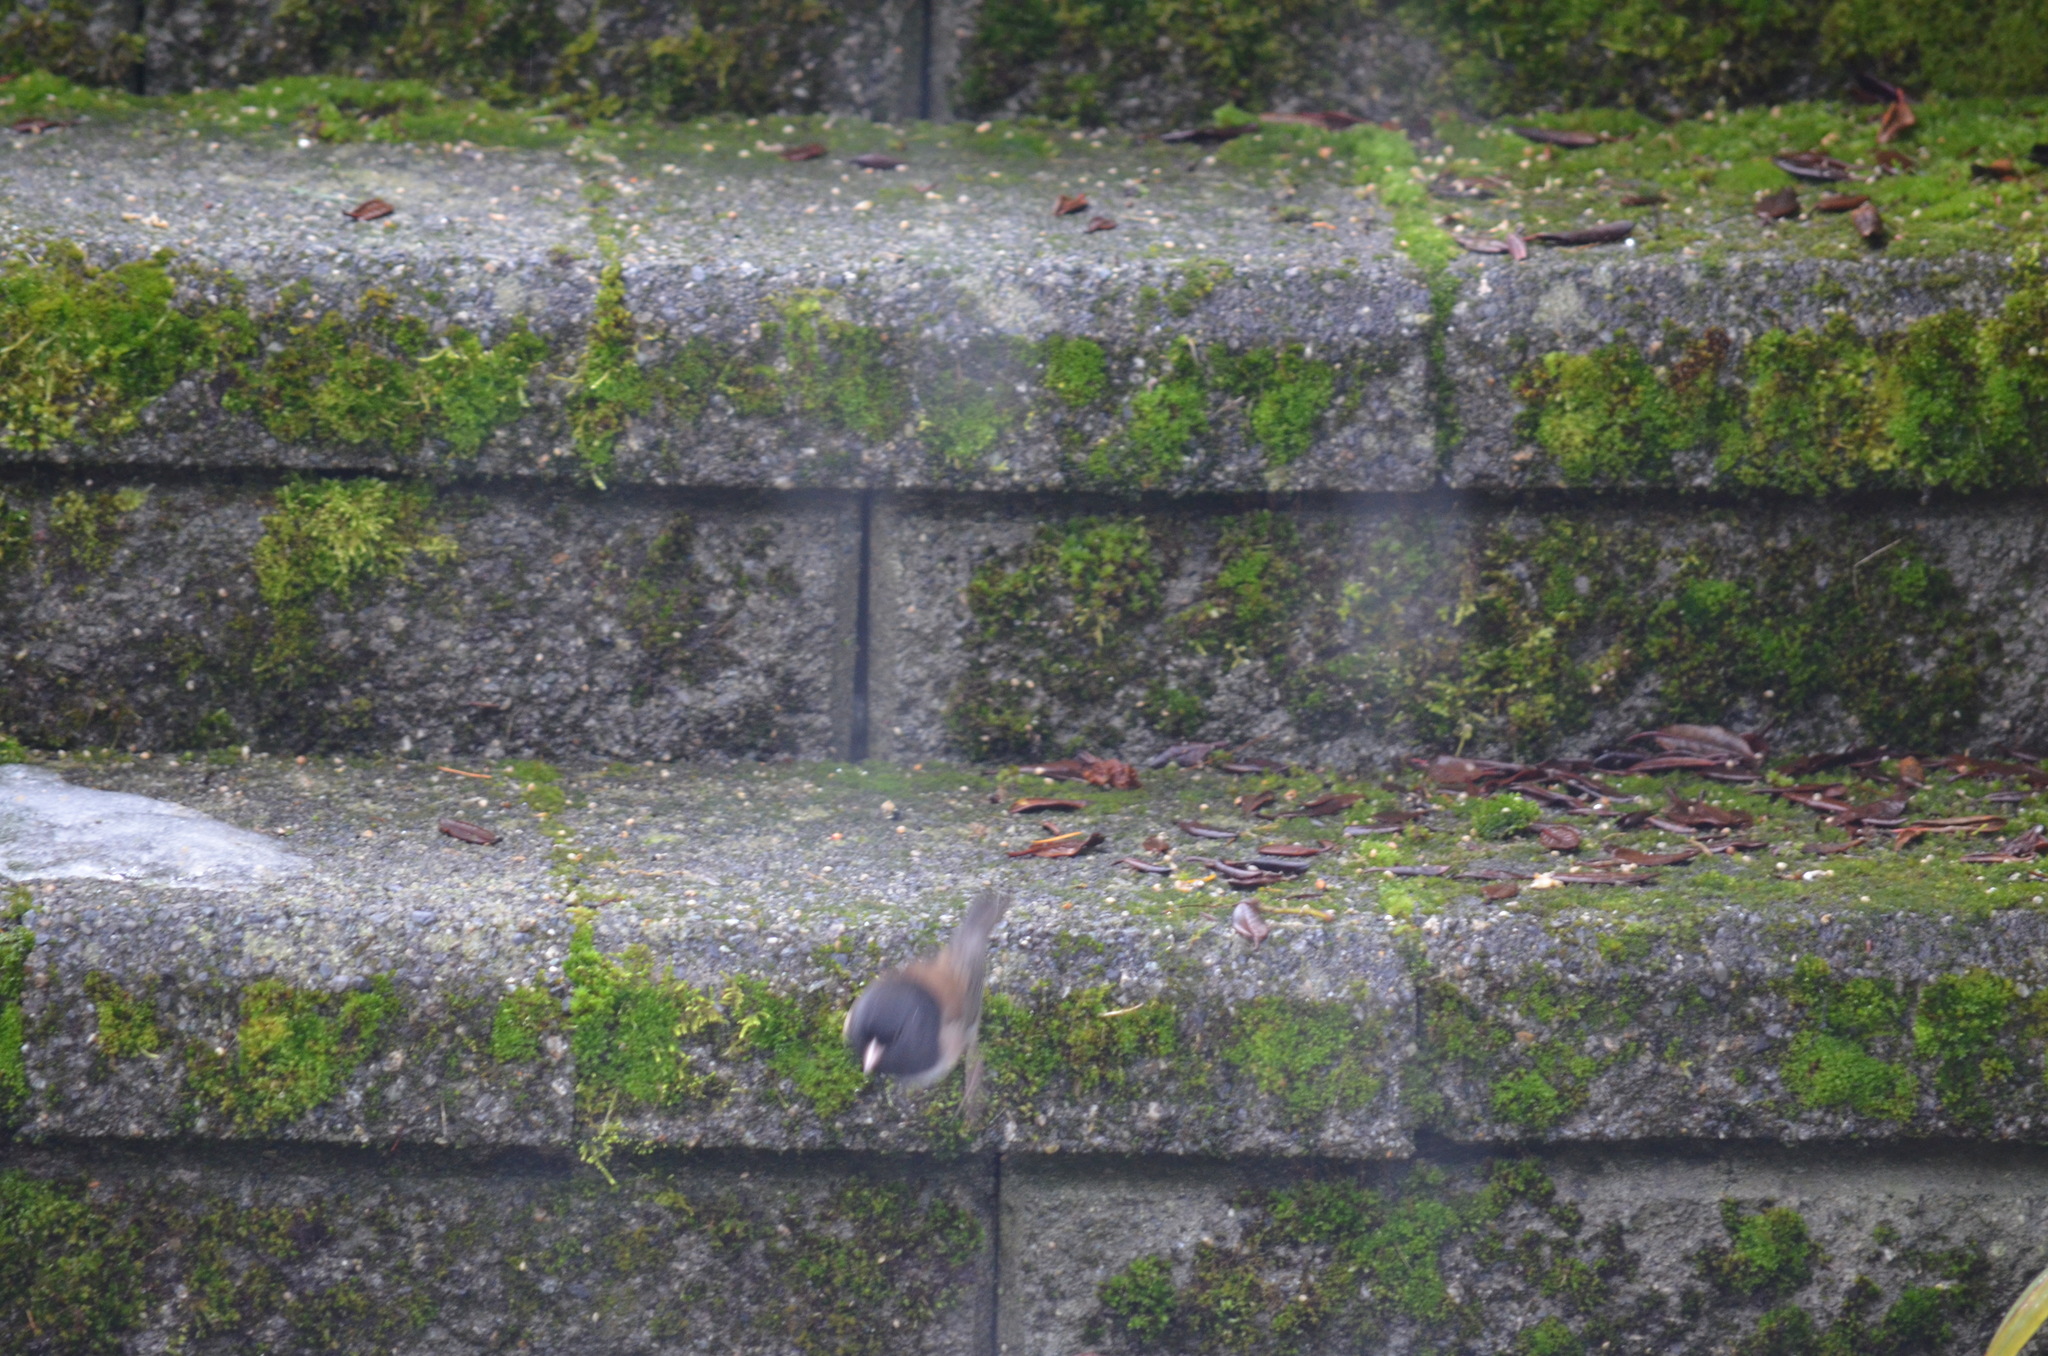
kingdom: Animalia
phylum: Chordata
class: Aves
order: Passeriformes
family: Passerellidae
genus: Junco
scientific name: Junco hyemalis
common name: Dark-eyed junco
